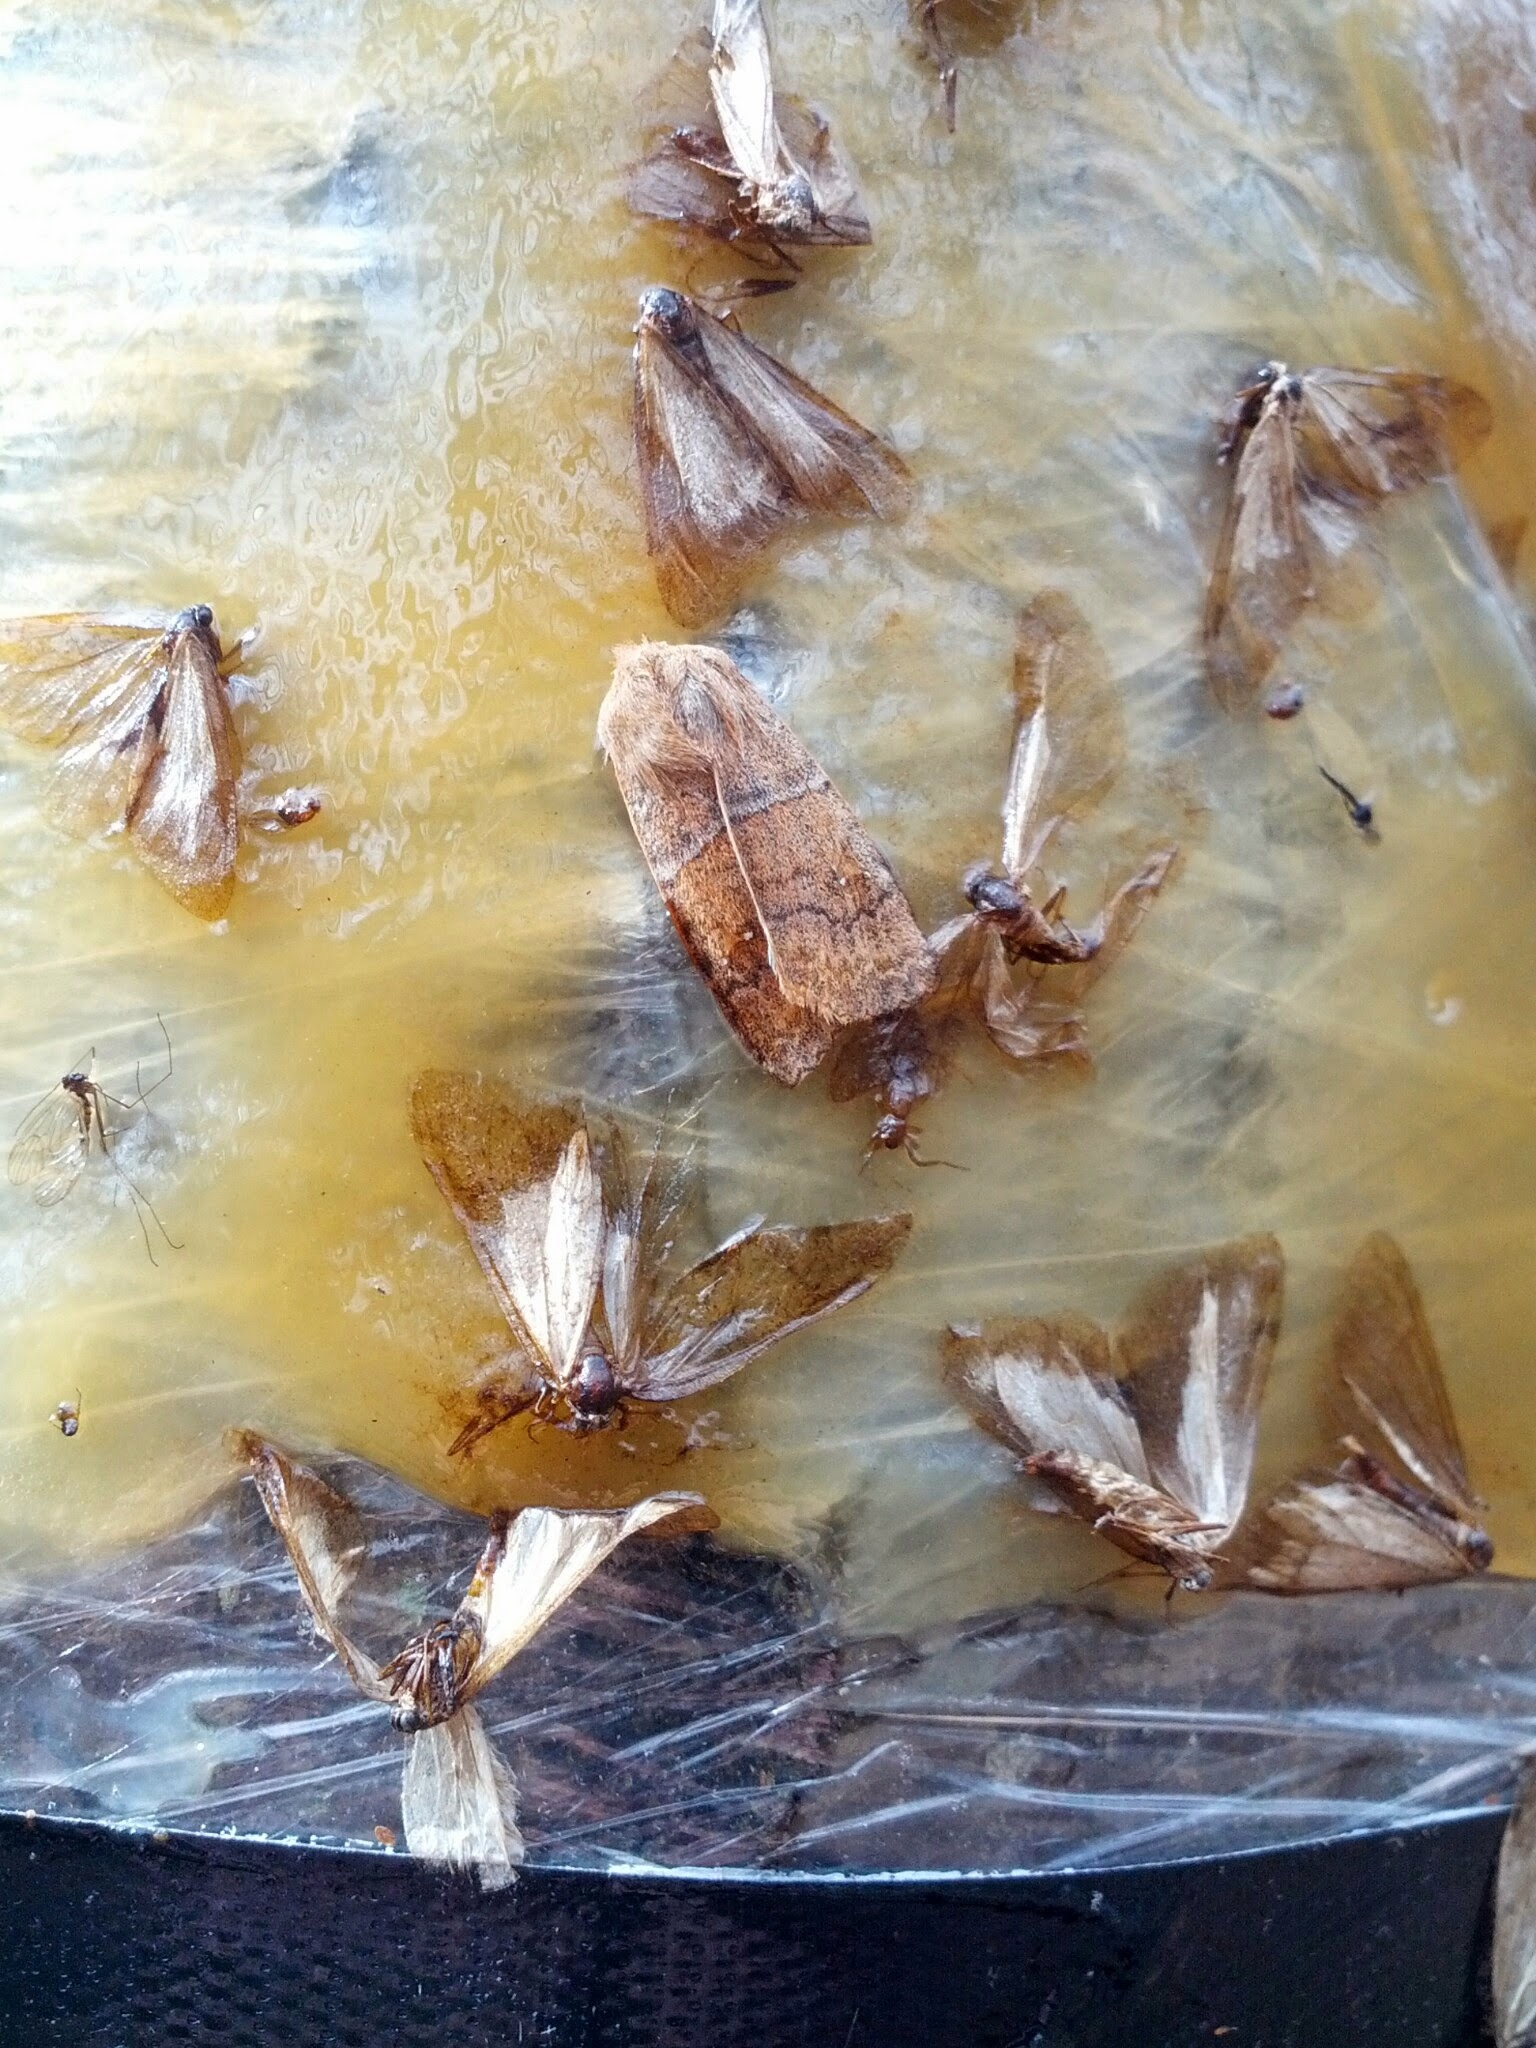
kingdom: Animalia
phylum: Arthropoda
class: Insecta
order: Lepidoptera
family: Noctuidae
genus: Eupsilia
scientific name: Eupsilia morrisoni
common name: Morrison's sallow
